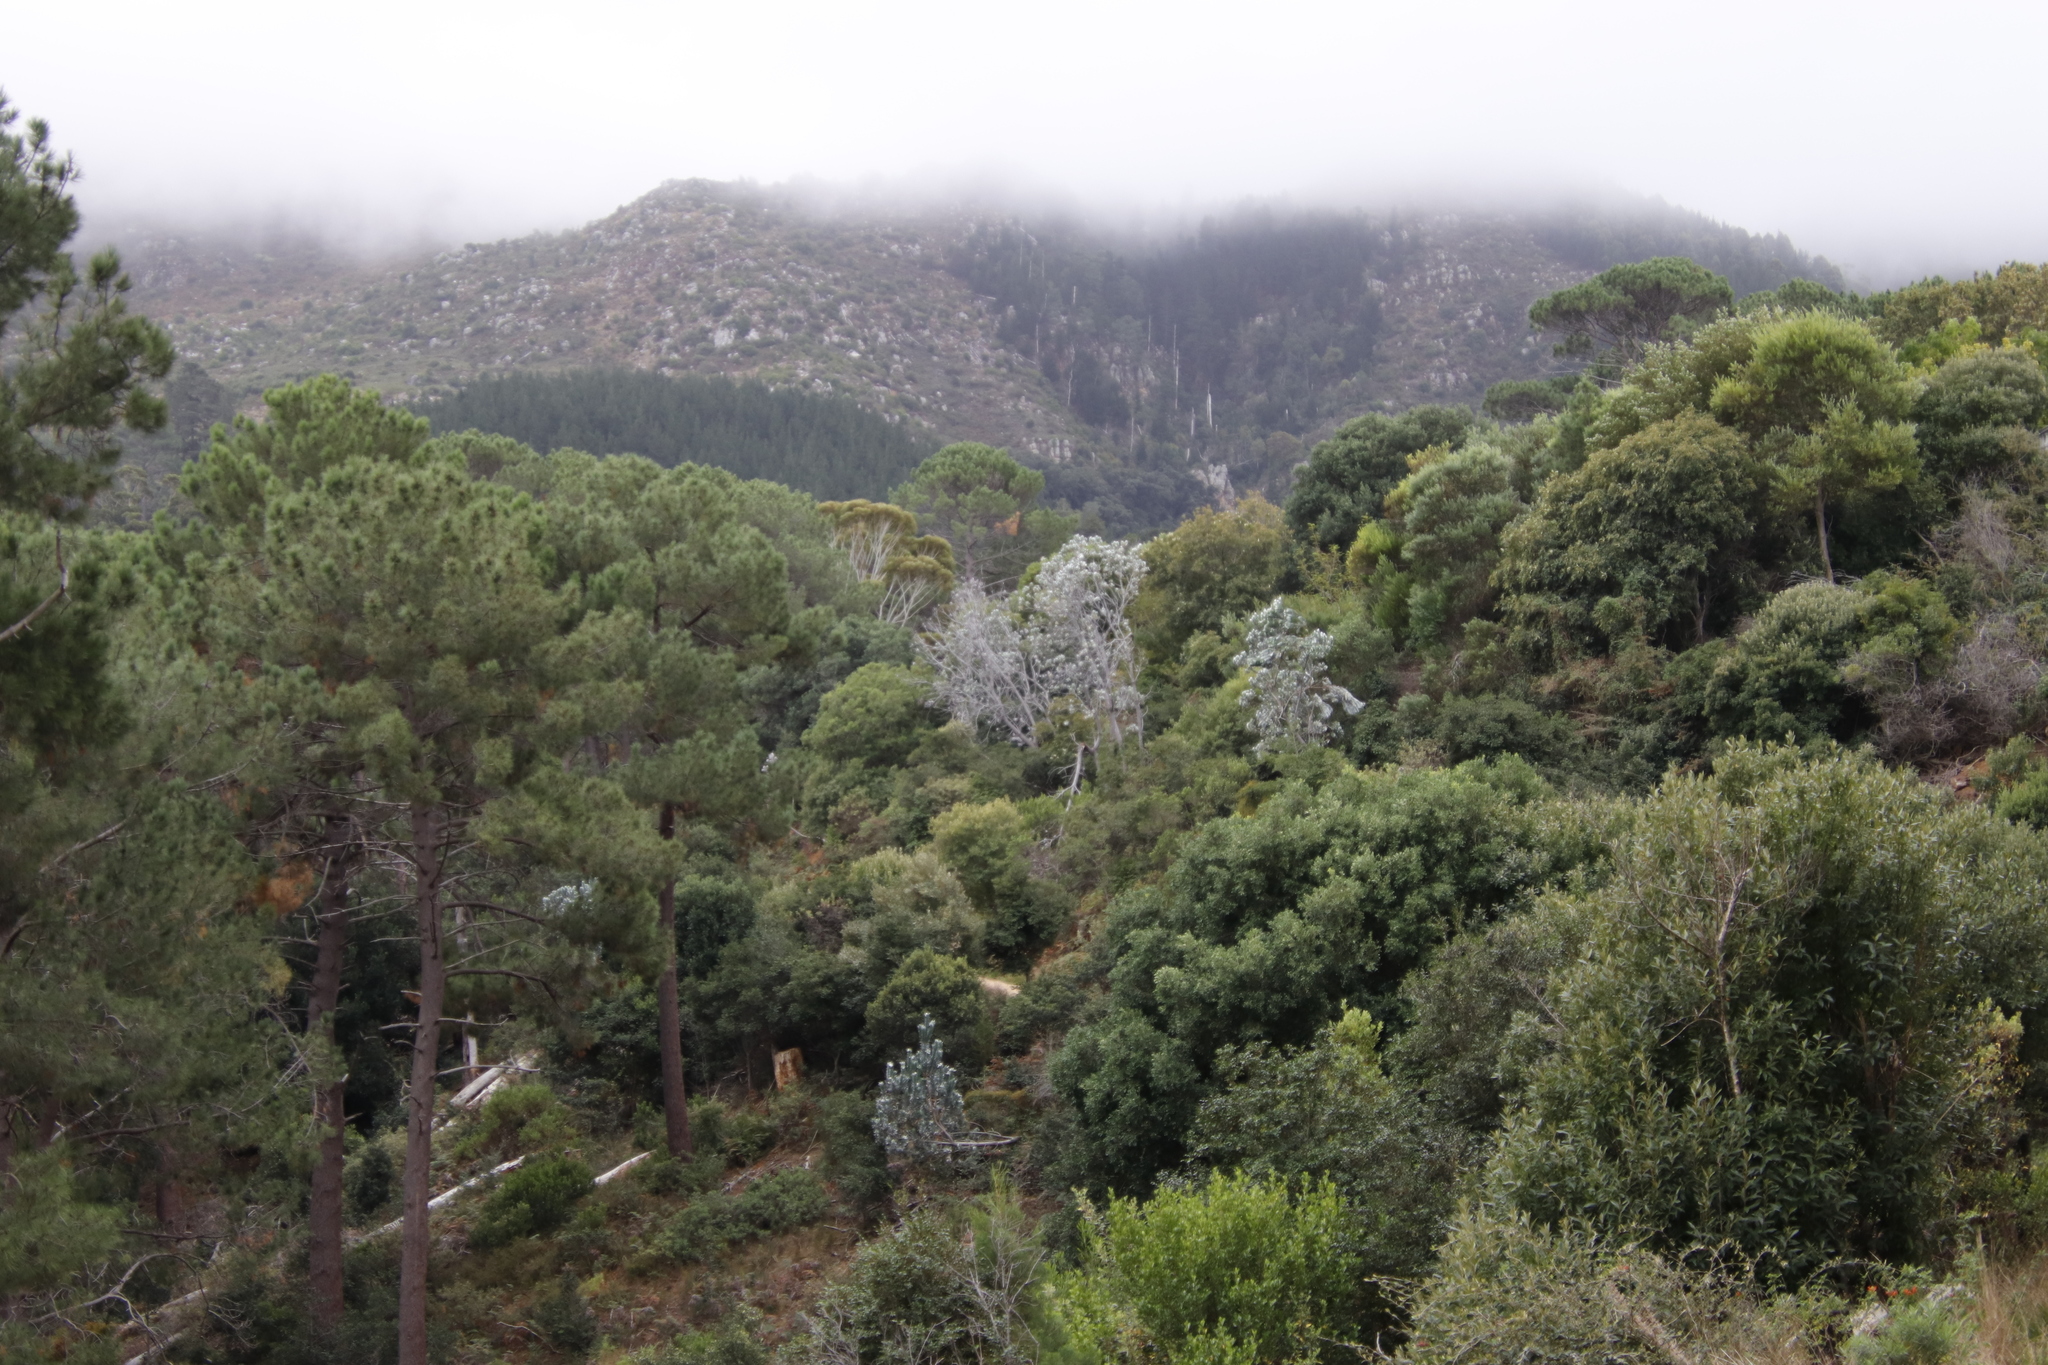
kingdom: Plantae
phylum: Tracheophyta
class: Magnoliopsida
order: Proteales
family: Proteaceae
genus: Leucadendron
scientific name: Leucadendron argenteum
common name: Cape silver tree
